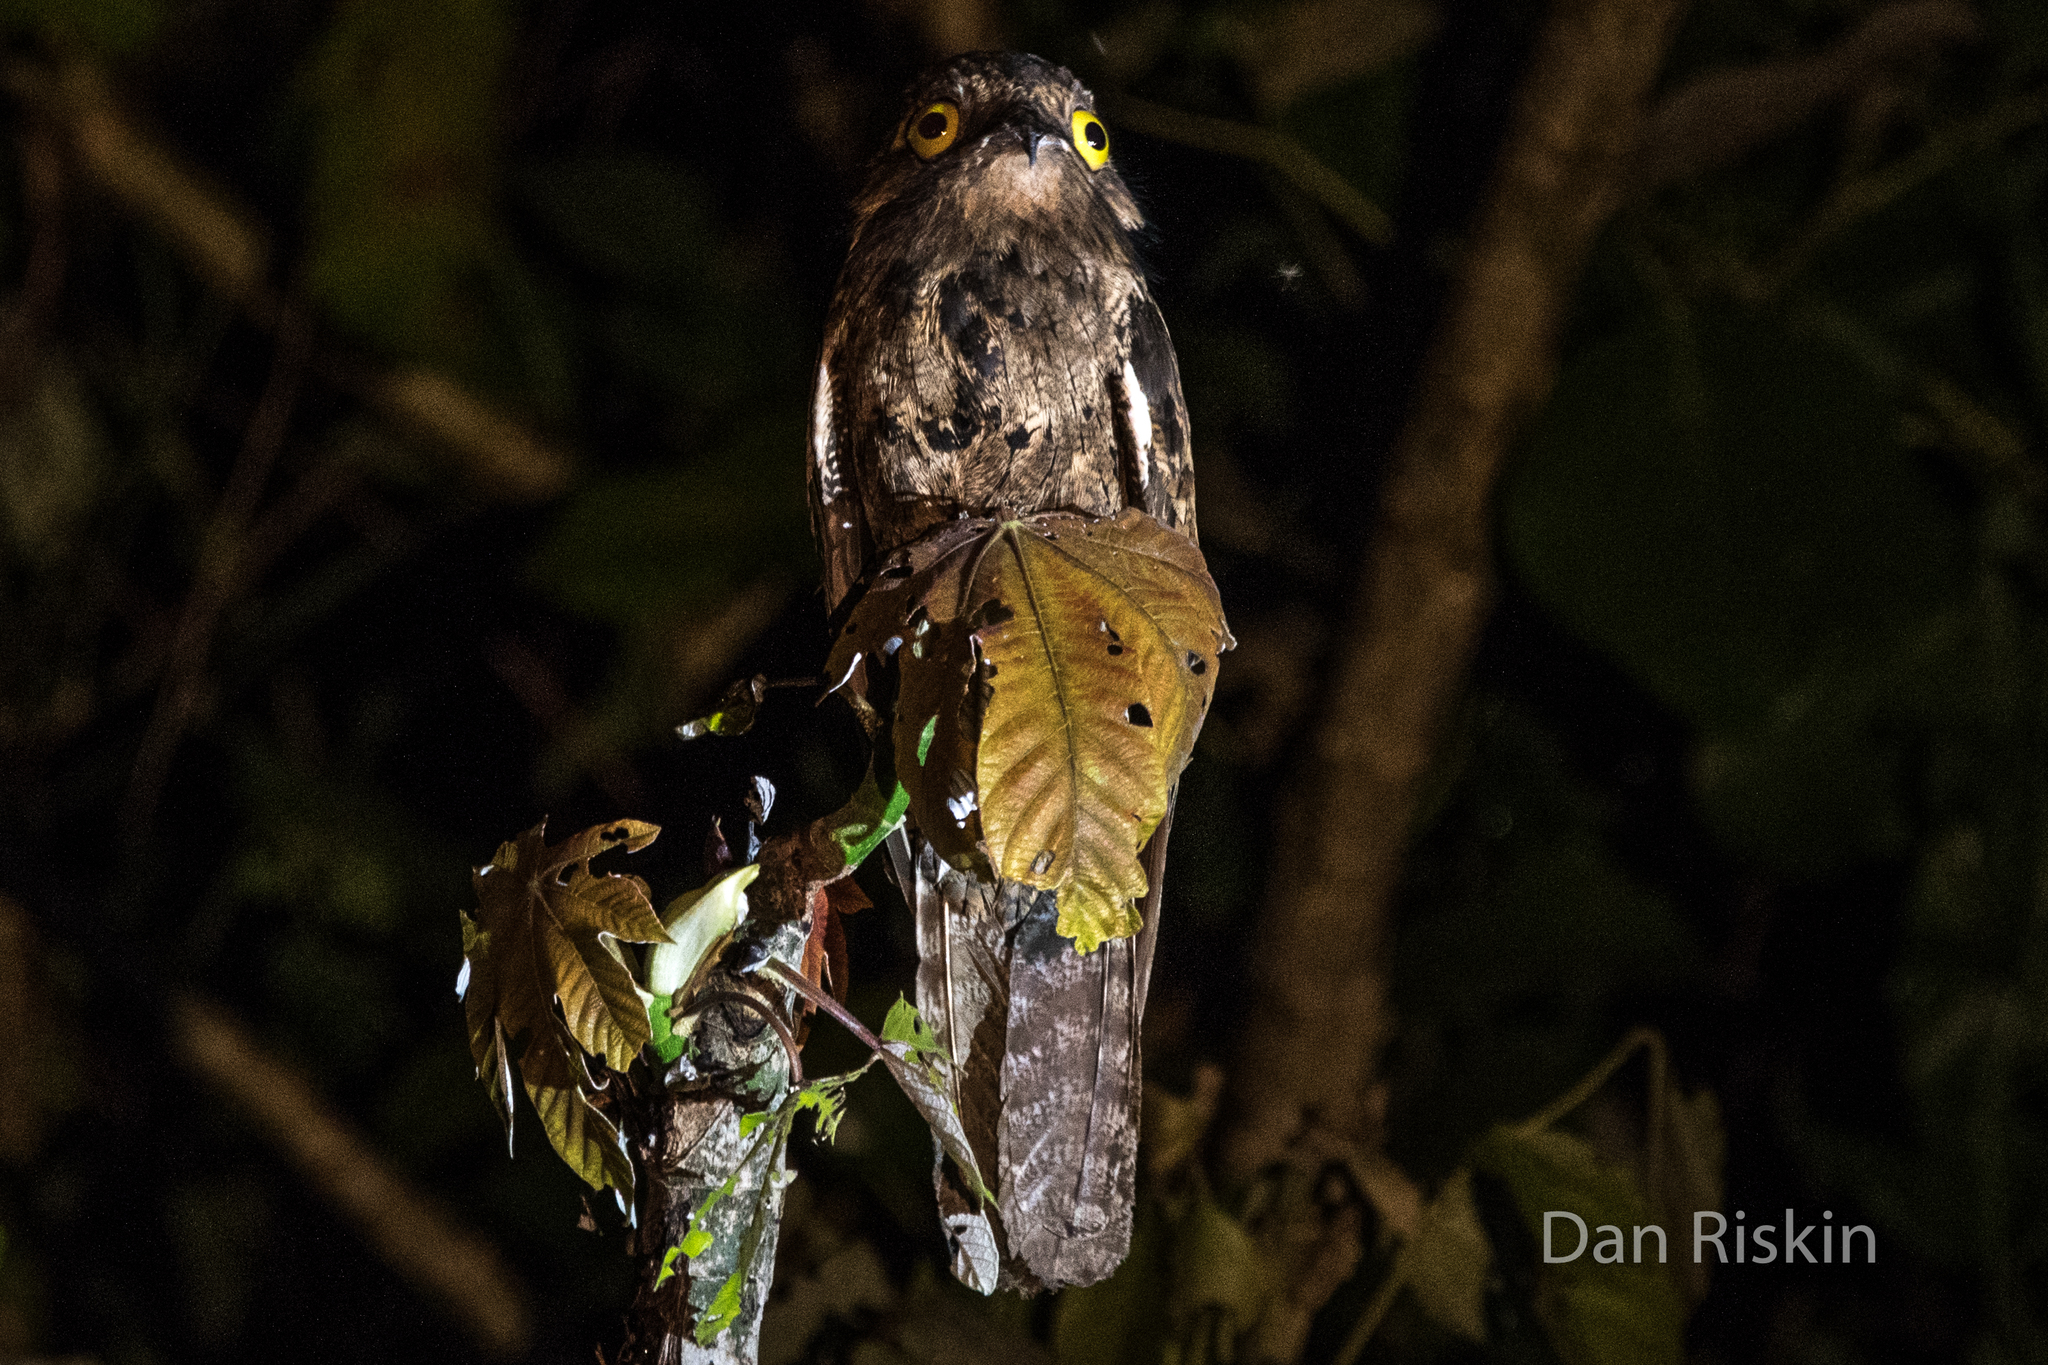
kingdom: Animalia
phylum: Chordata
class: Aves
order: Nyctibiiformes
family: Nyctibiidae
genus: Nyctibius
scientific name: Nyctibius griseus
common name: Common potoo
